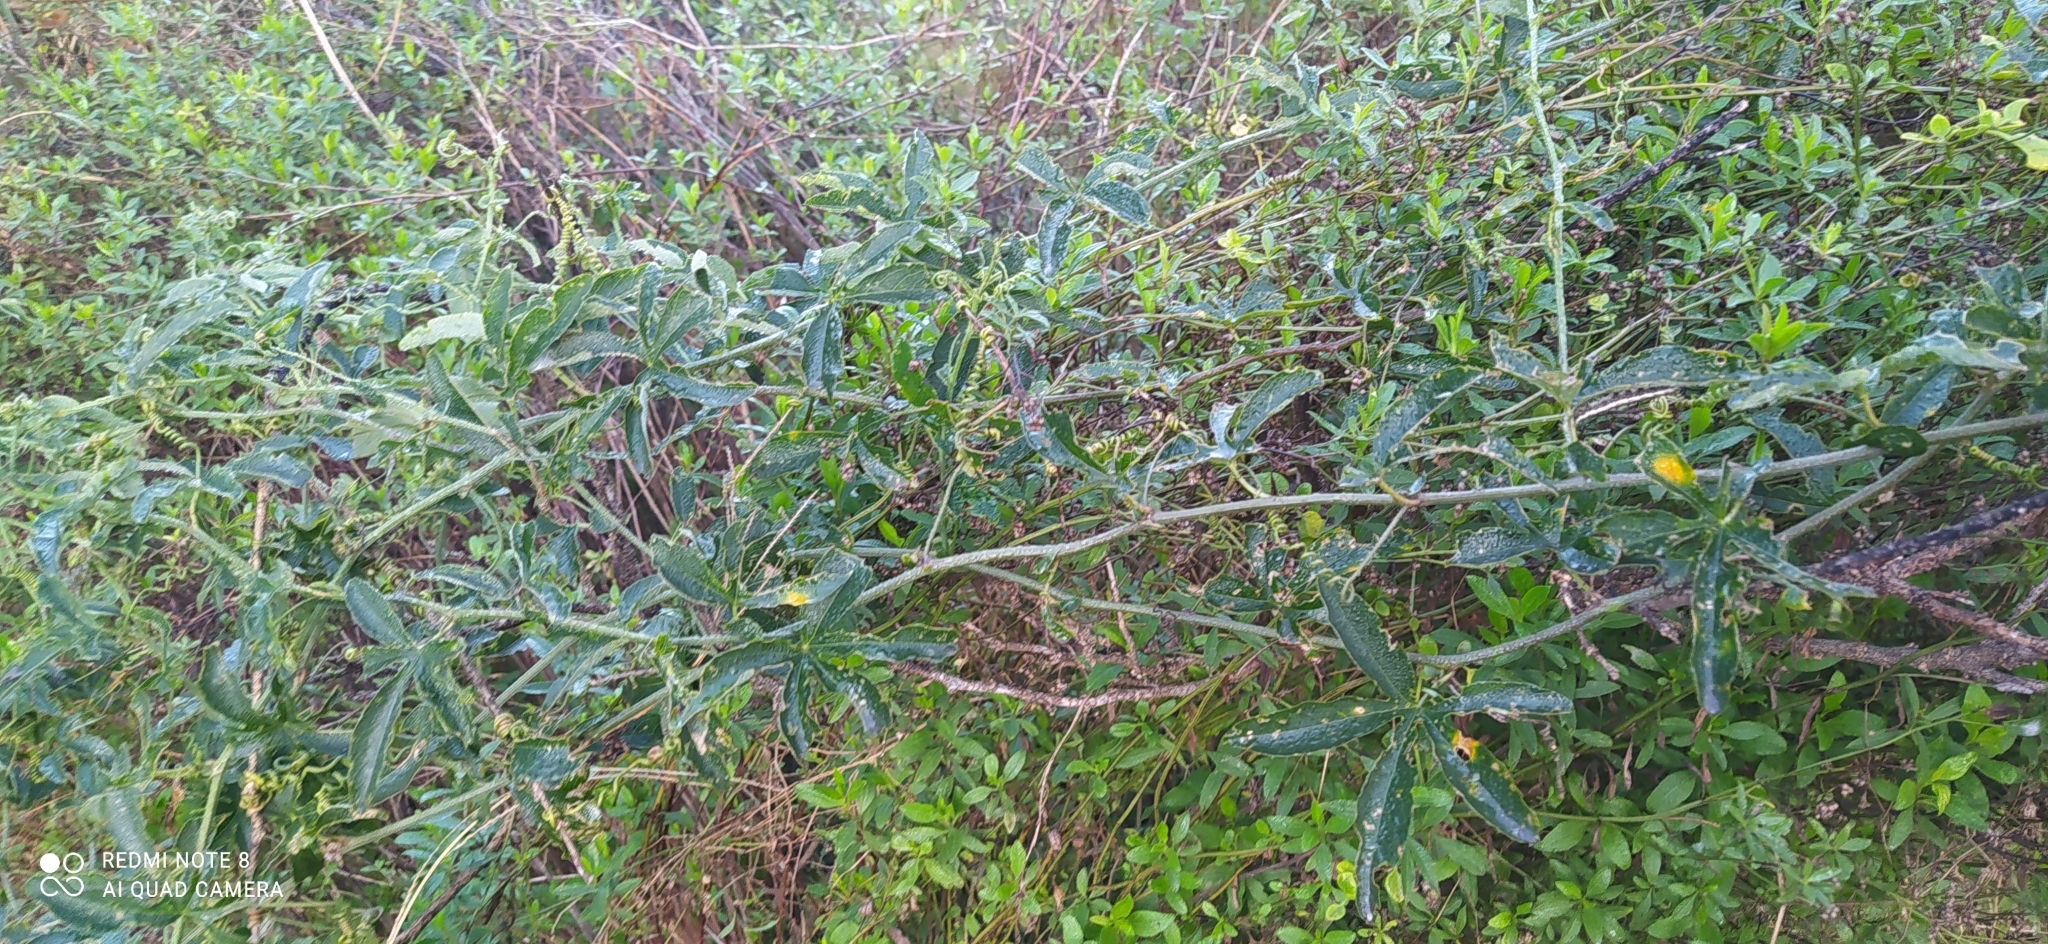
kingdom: Plantae
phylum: Tracheophyta
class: Magnoliopsida
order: Malpighiales
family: Passifloraceae
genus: Passiflora
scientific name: Passiflora caerulea
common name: Blue passionflower
